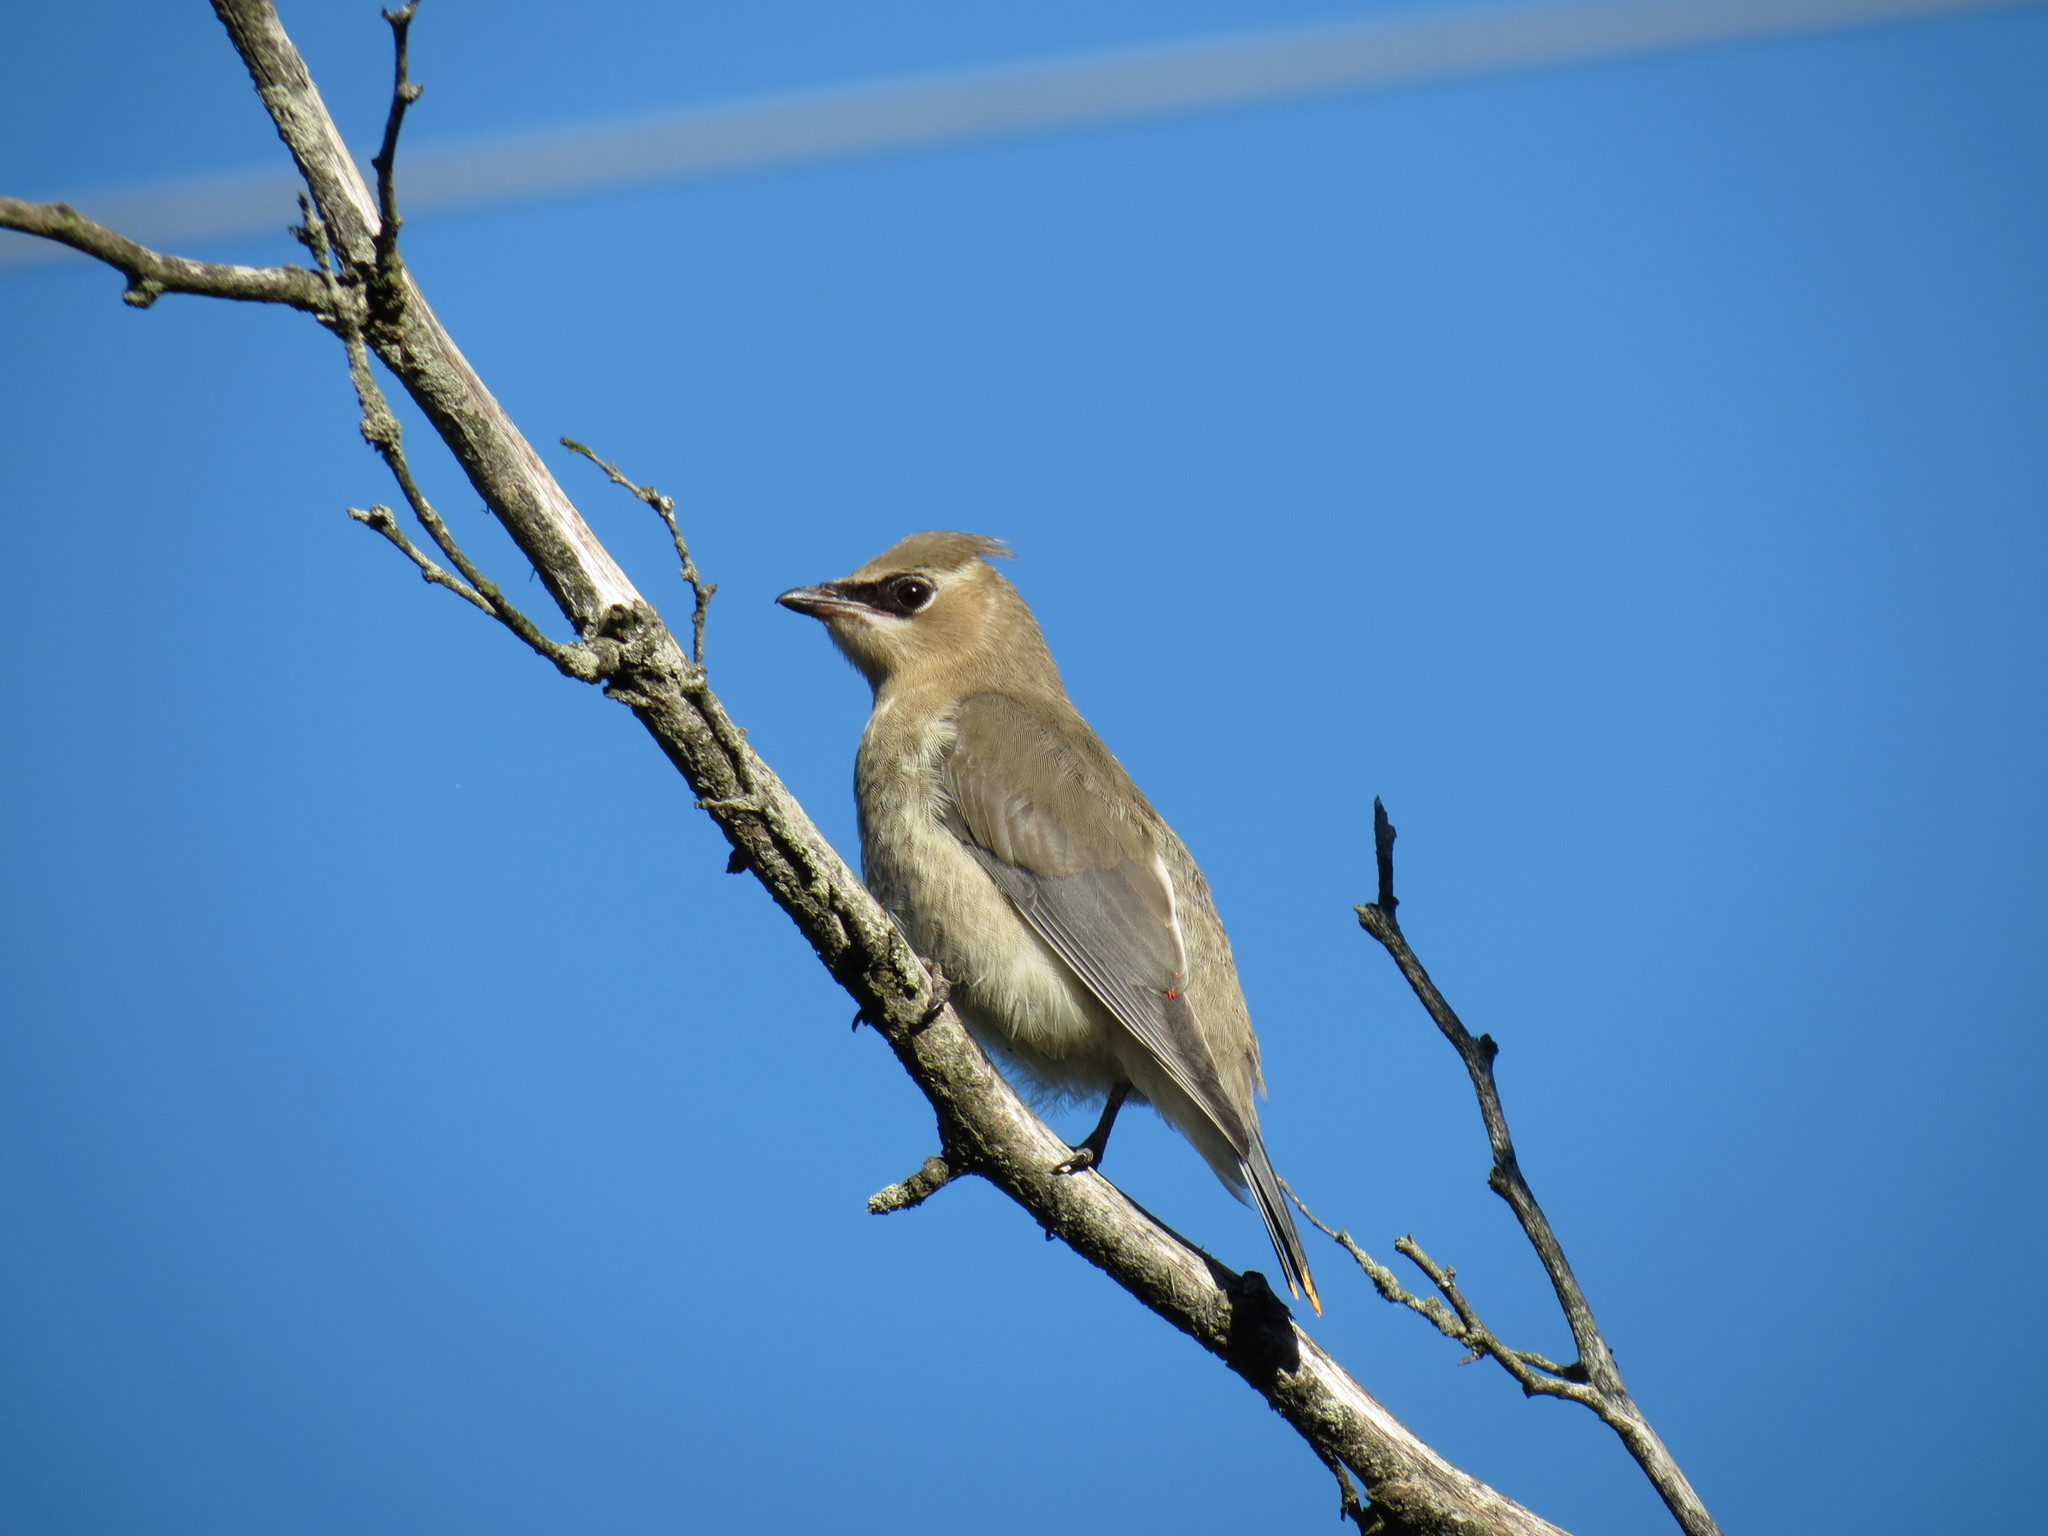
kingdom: Animalia
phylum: Chordata
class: Aves
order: Passeriformes
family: Bombycillidae
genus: Bombycilla
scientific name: Bombycilla cedrorum
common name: Cedar waxwing
